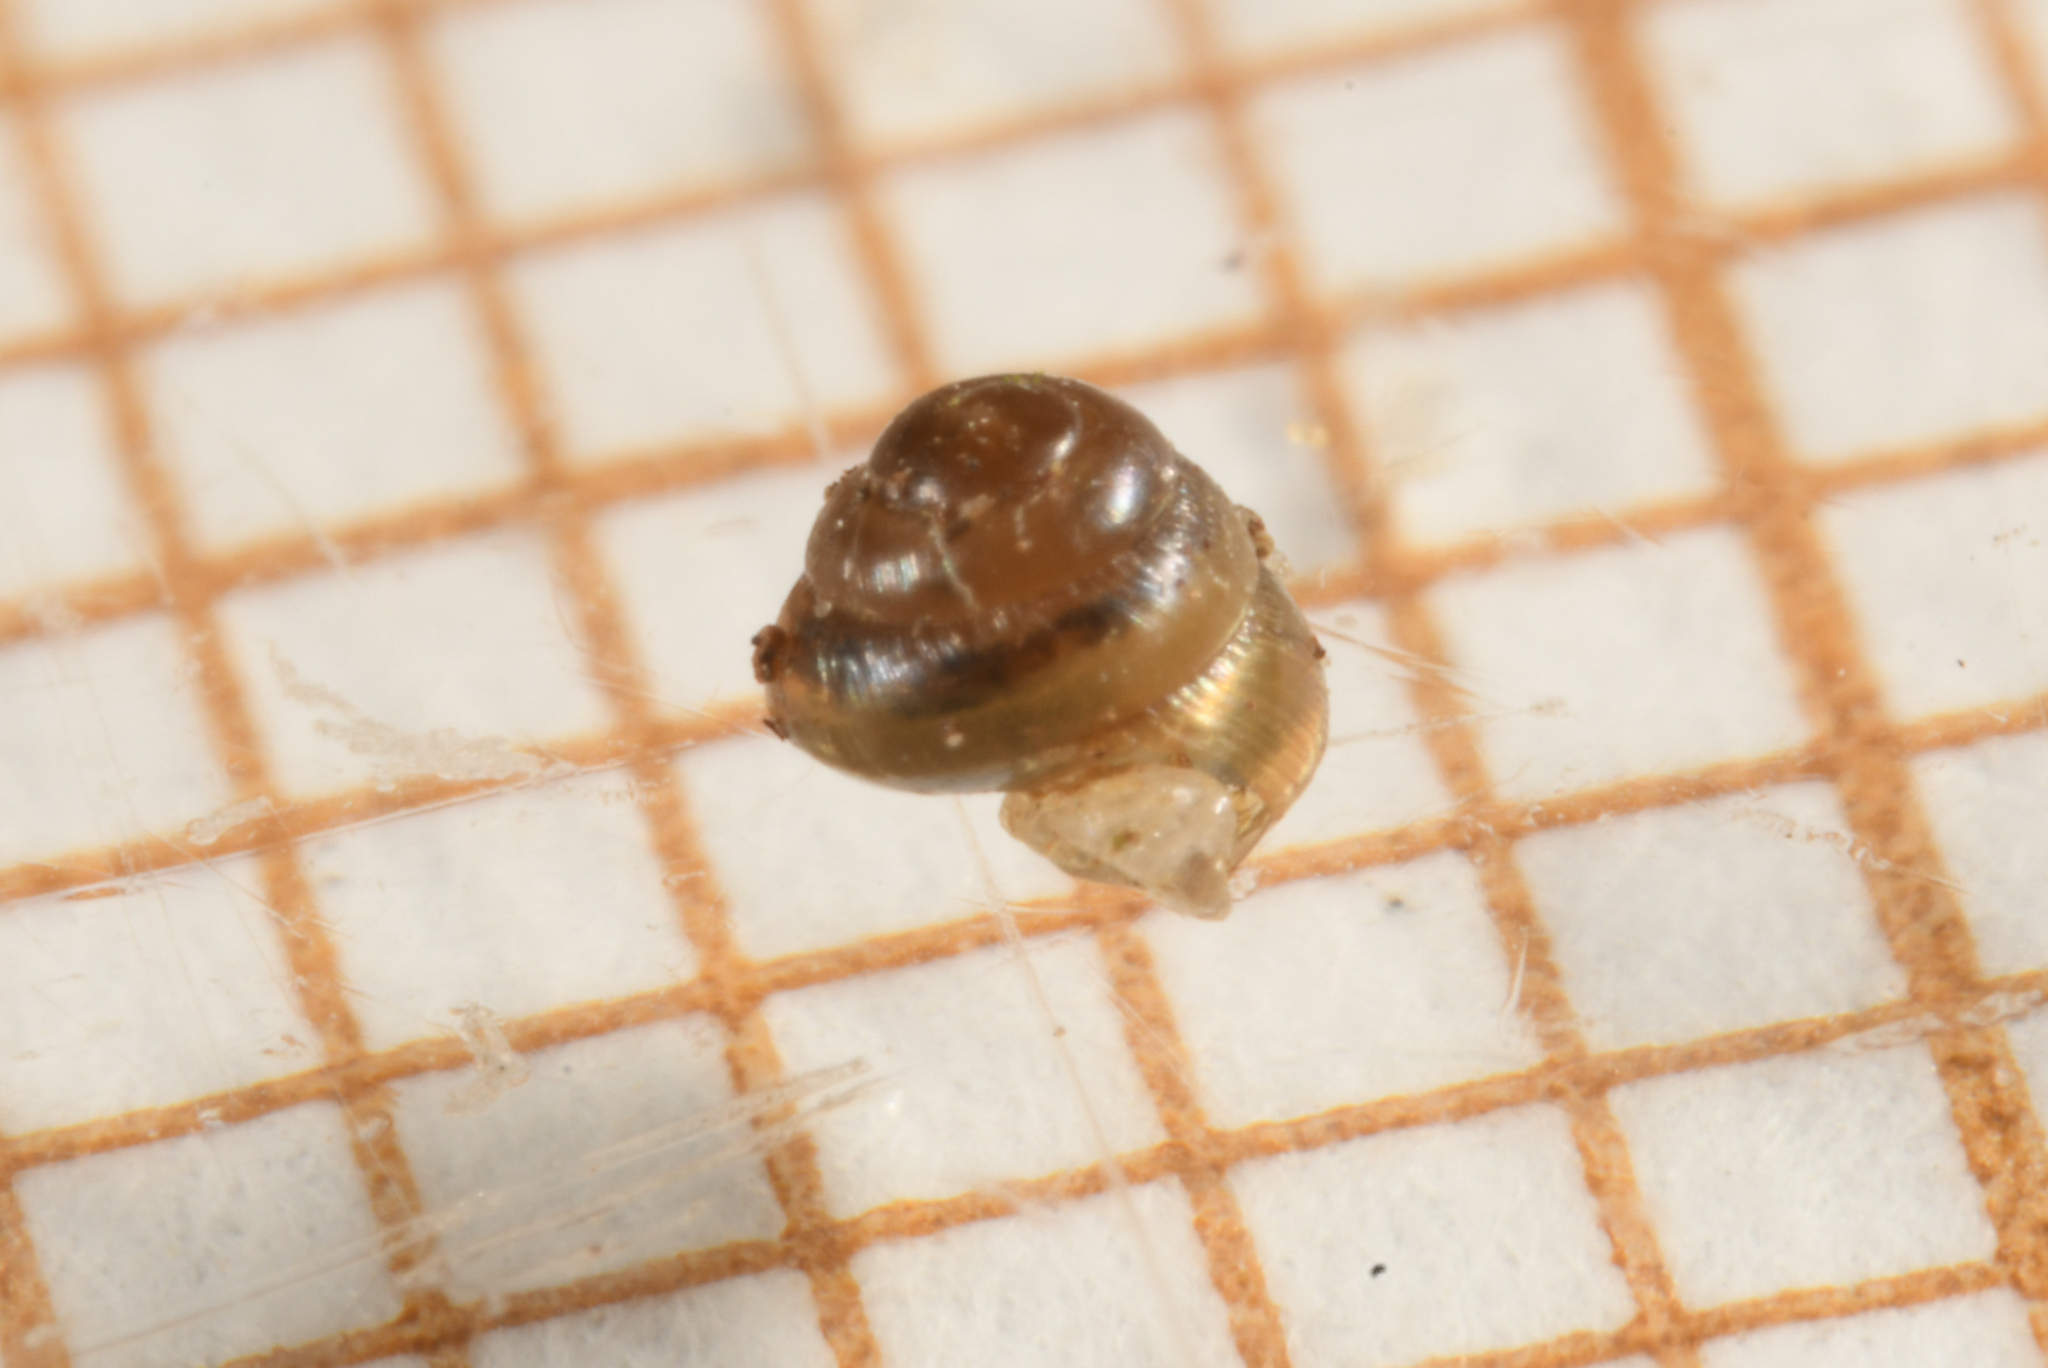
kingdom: Animalia
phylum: Mollusca
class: Gastropoda
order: Stylommatophora
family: Lauriidae
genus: Lauria
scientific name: Lauria cylindracea
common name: Common chrysalis snail
